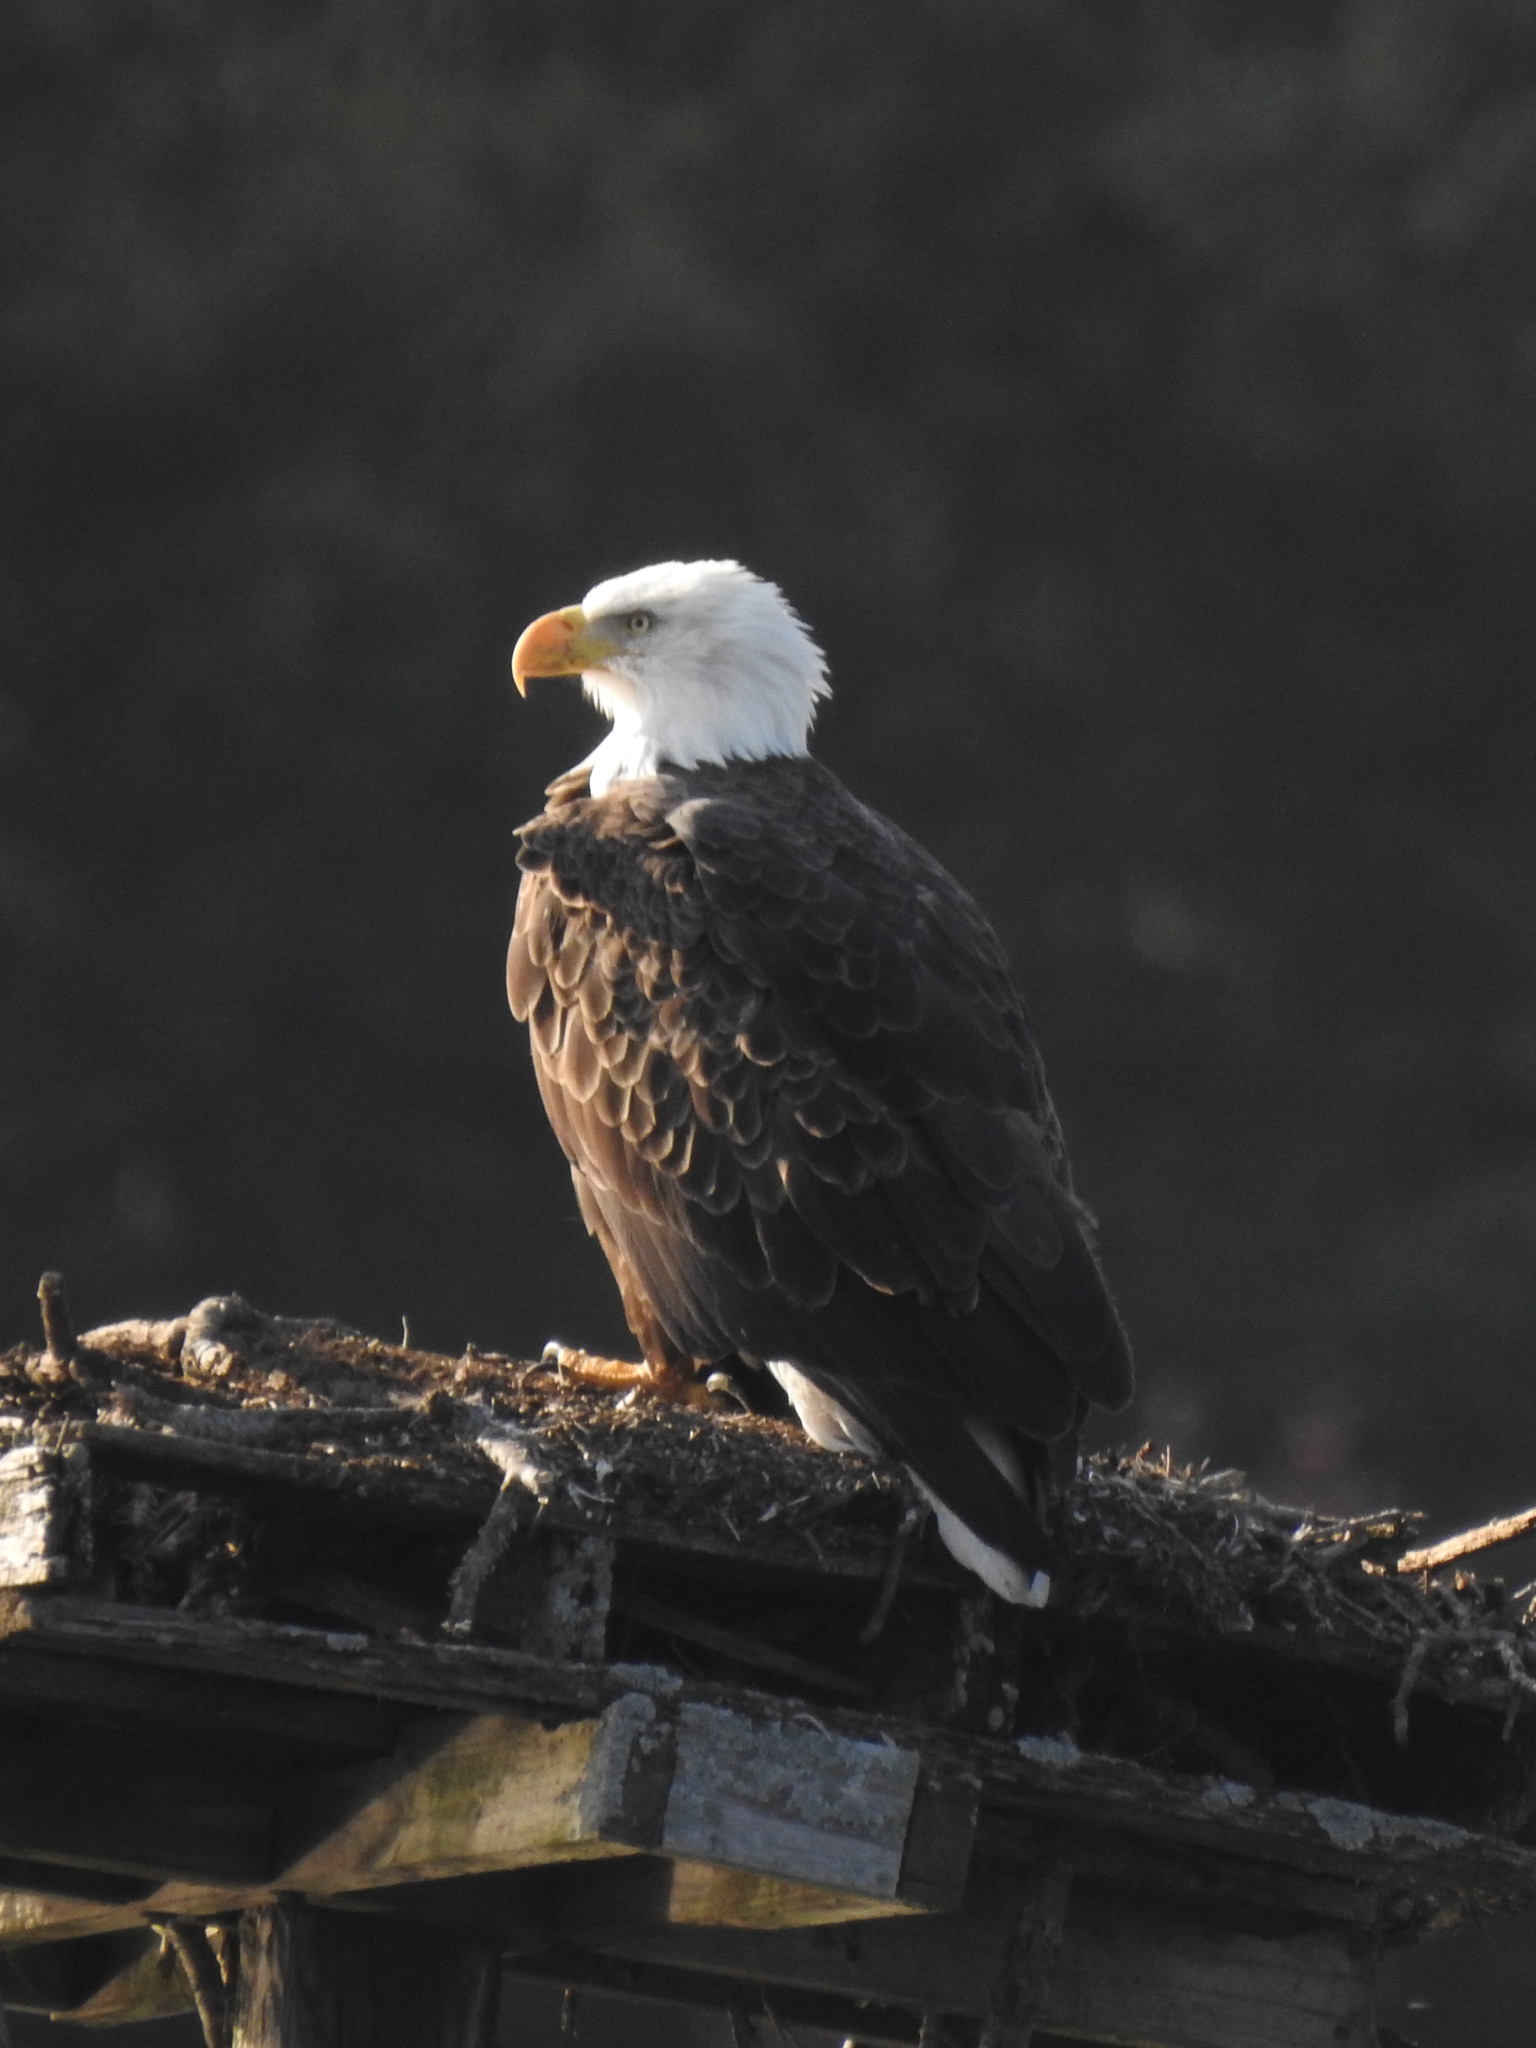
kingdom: Animalia
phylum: Chordata
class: Aves
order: Accipitriformes
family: Accipitridae
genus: Haliaeetus
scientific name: Haliaeetus leucocephalus
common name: Bald eagle
